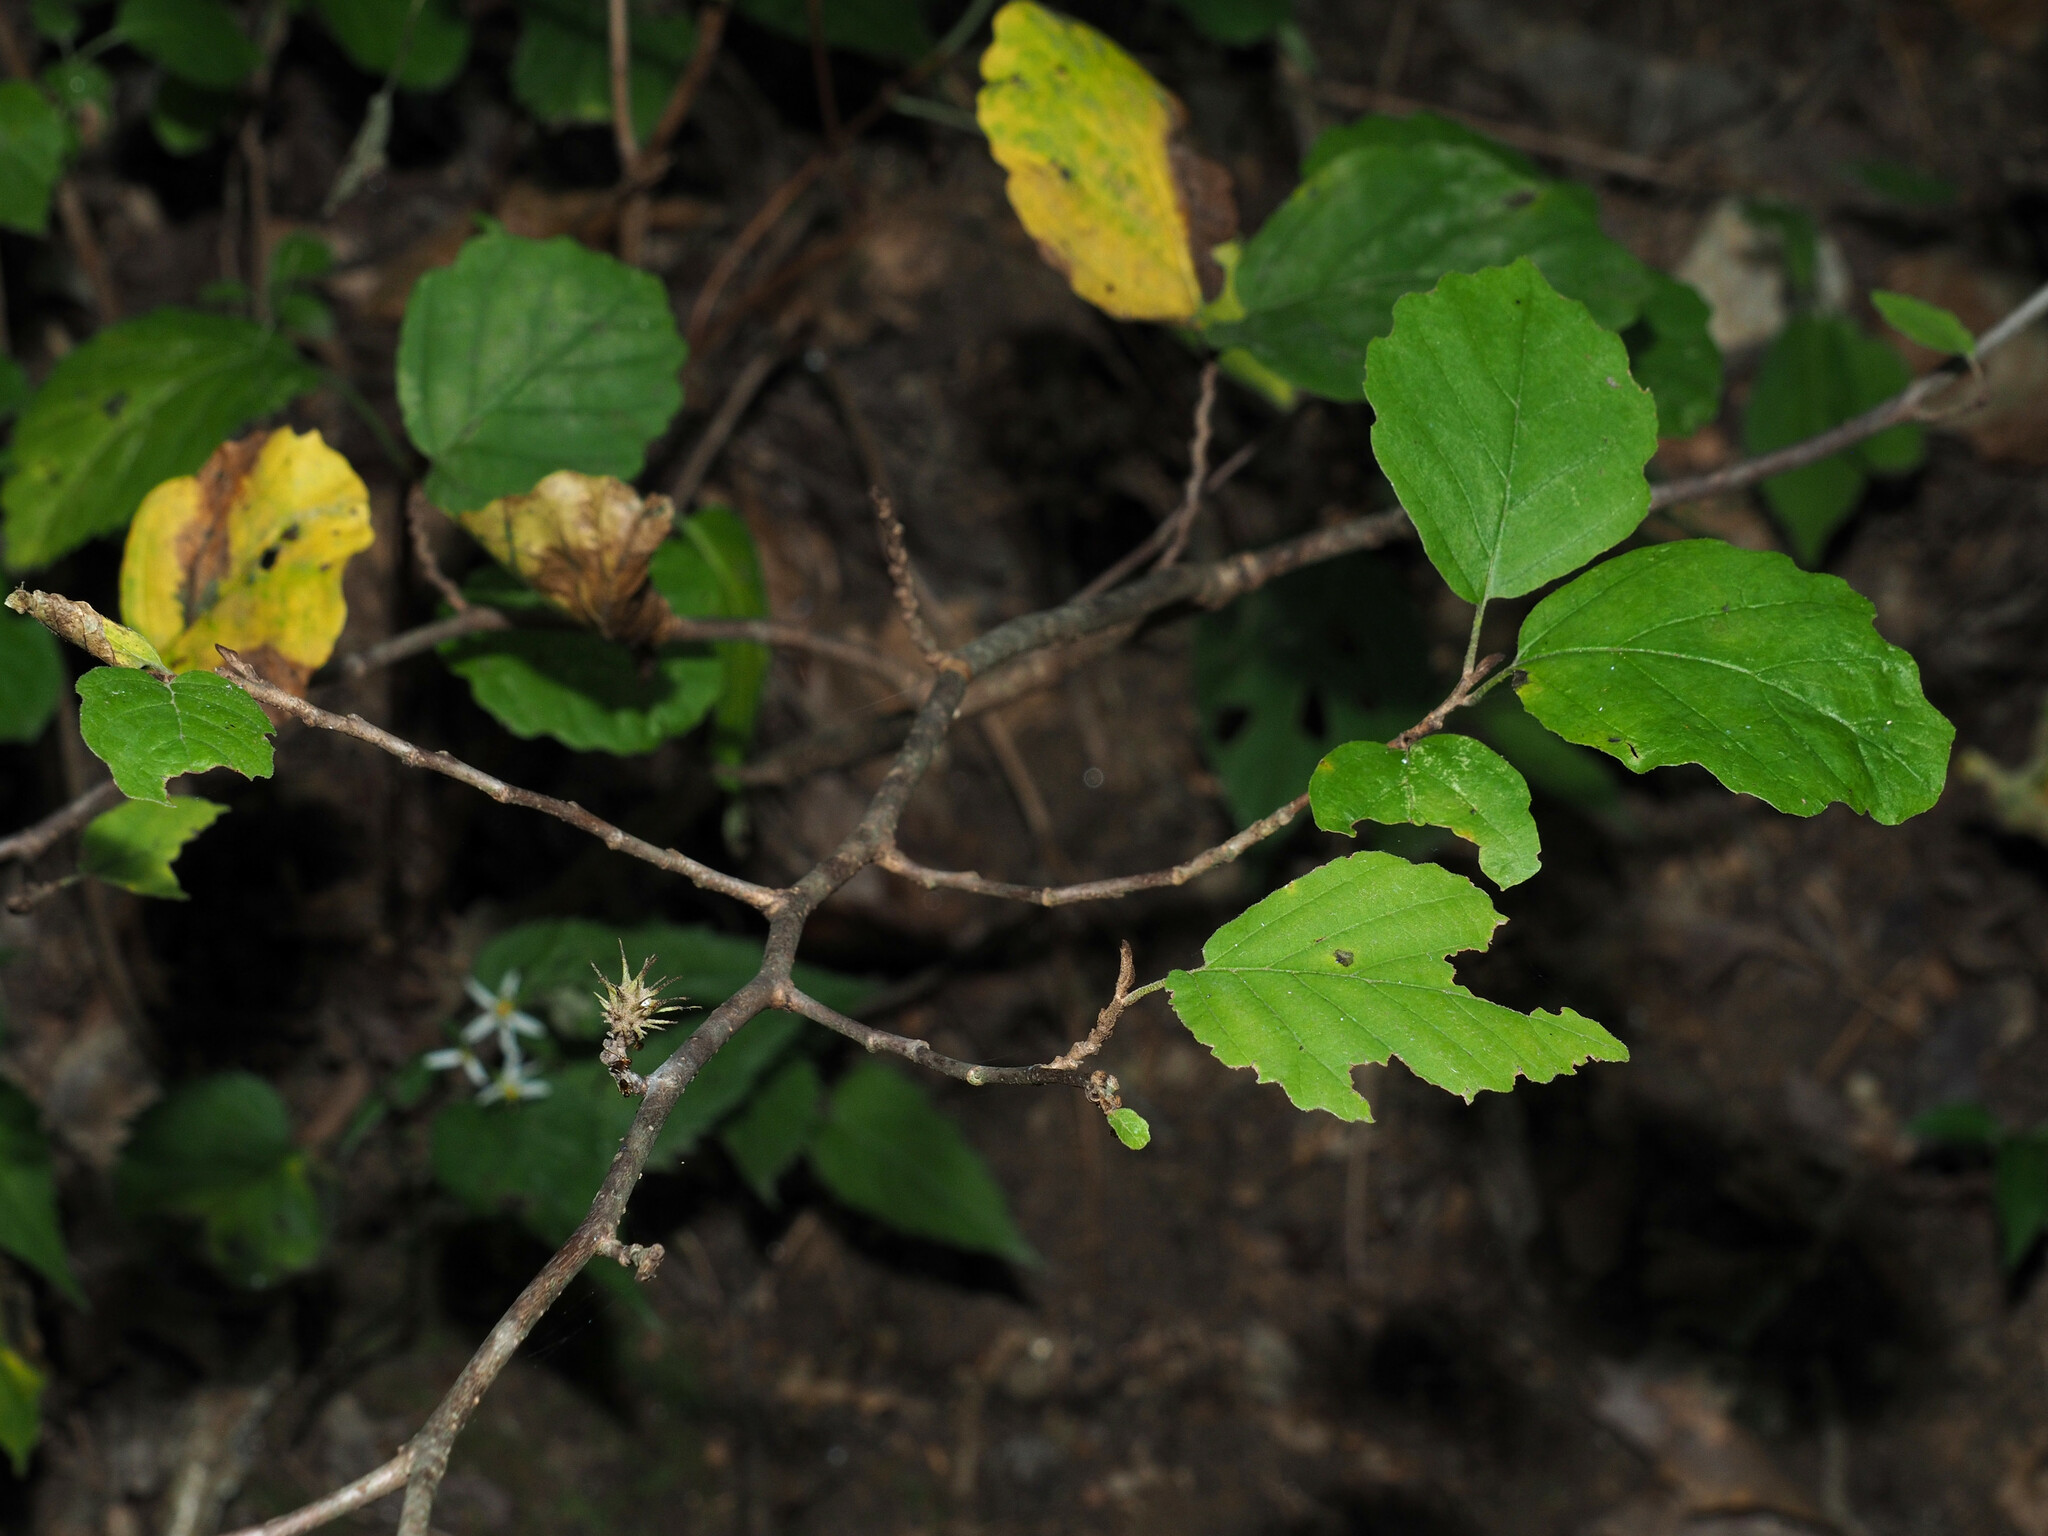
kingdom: Plantae
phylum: Tracheophyta
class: Magnoliopsida
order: Saxifragales
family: Hamamelidaceae
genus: Hamamelis
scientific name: Hamamelis virginiana
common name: Witch-hazel
